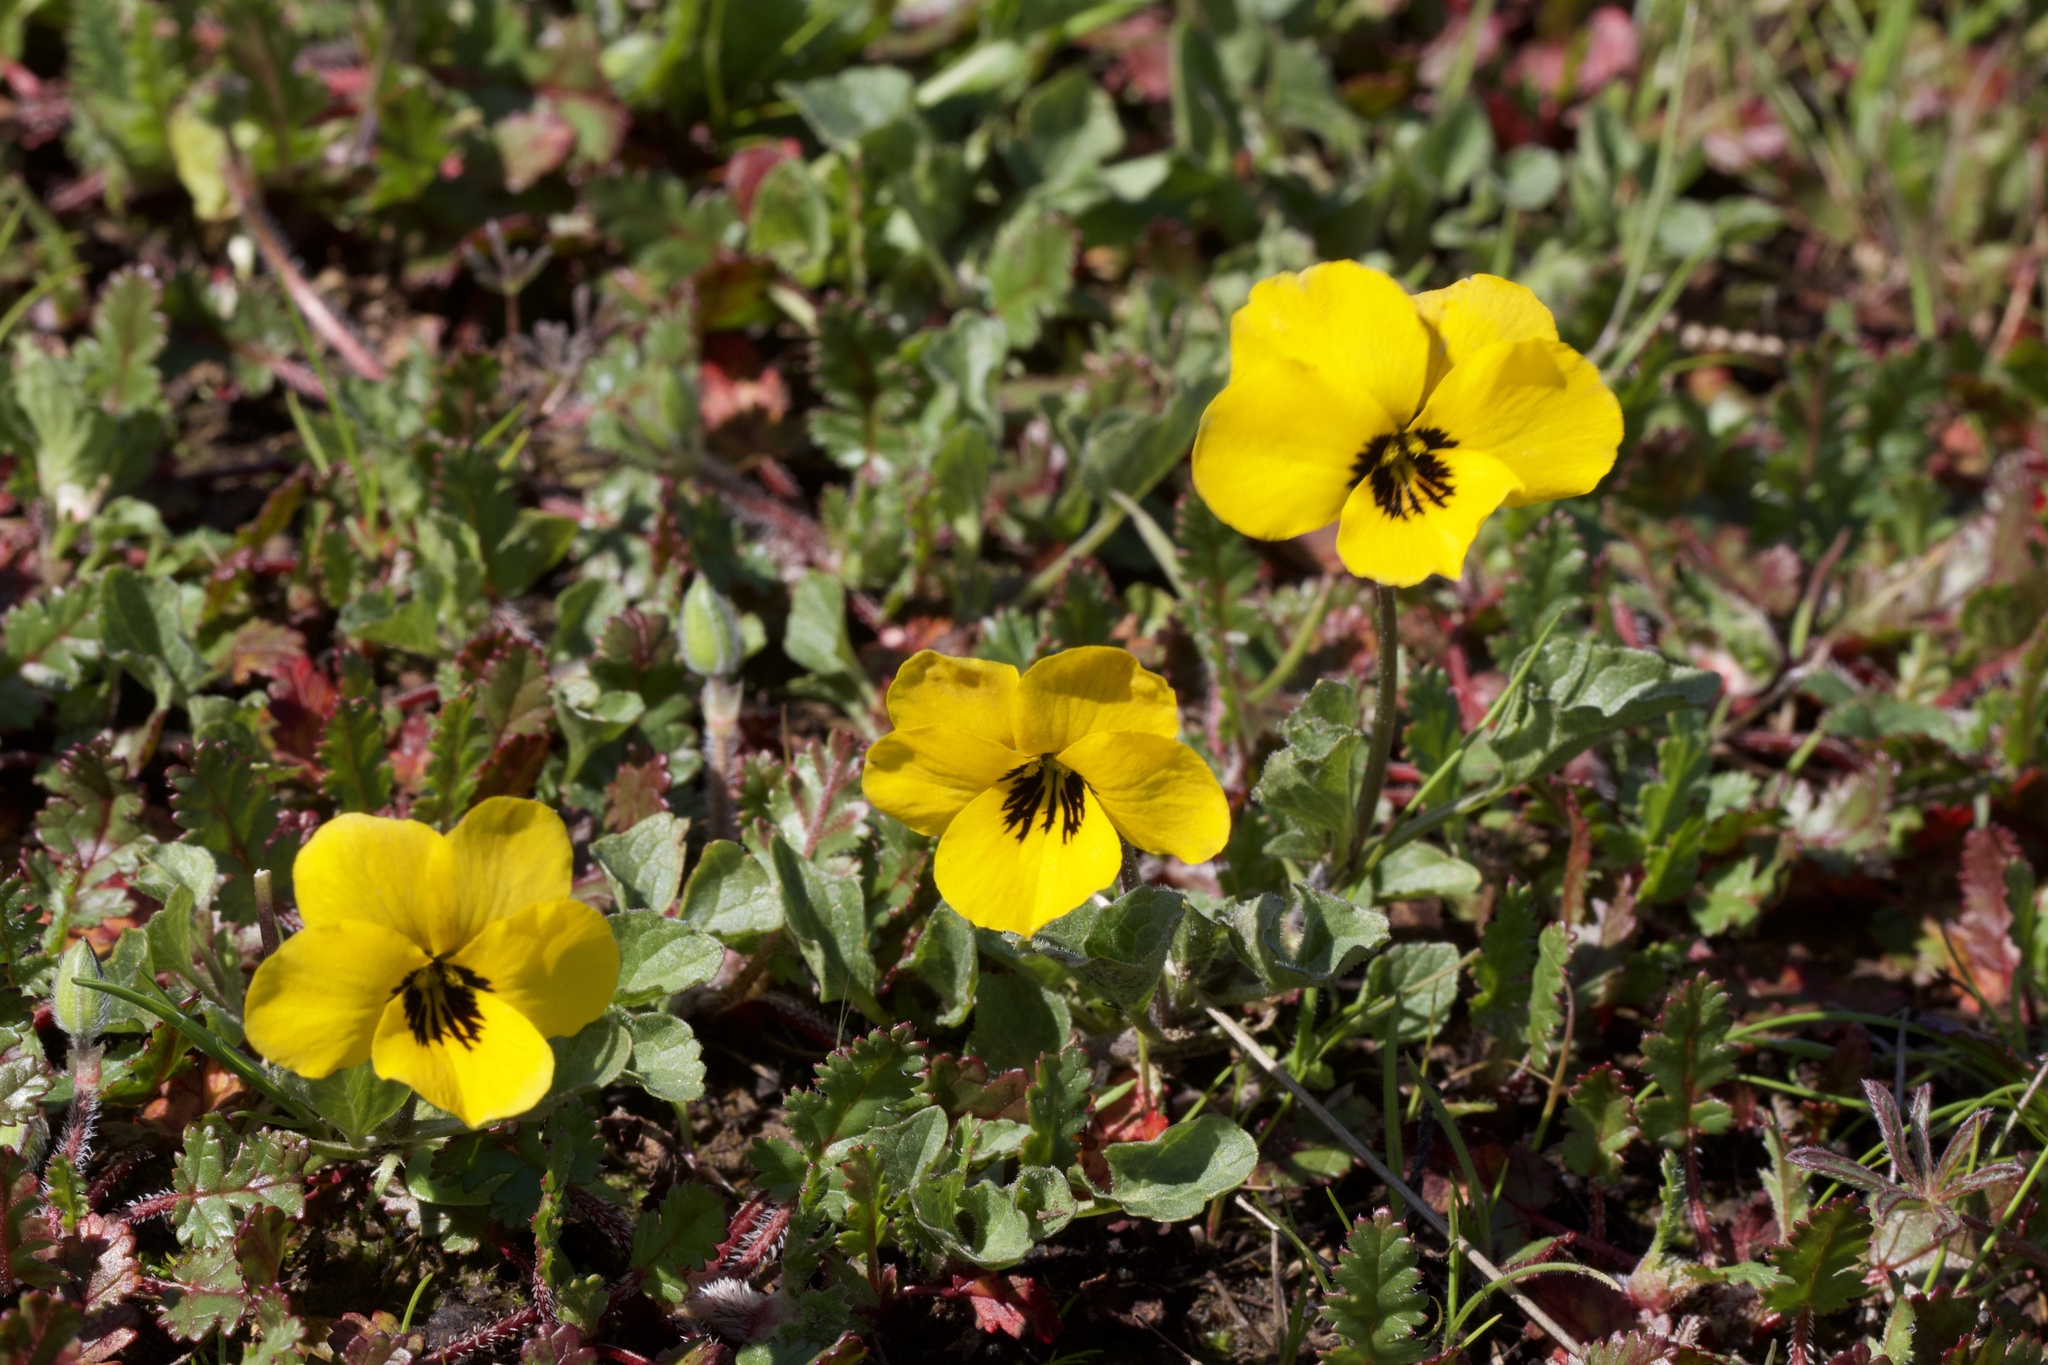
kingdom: Plantae
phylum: Tracheophyta
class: Magnoliopsida
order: Malpighiales
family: Violaceae
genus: Viola
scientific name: Viola pedunculata
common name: California golden violet
